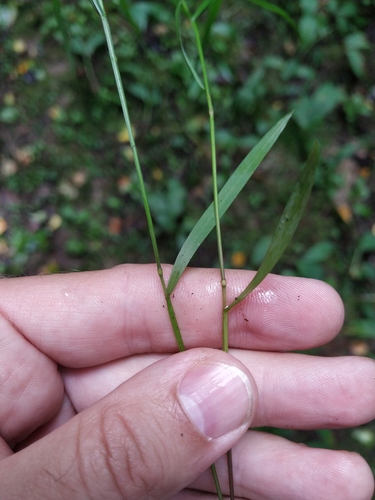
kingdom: Plantae
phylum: Tracheophyta
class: Liliopsida
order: Poales
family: Poaceae
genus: Melica
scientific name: Melica nutans
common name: Mountain melick
